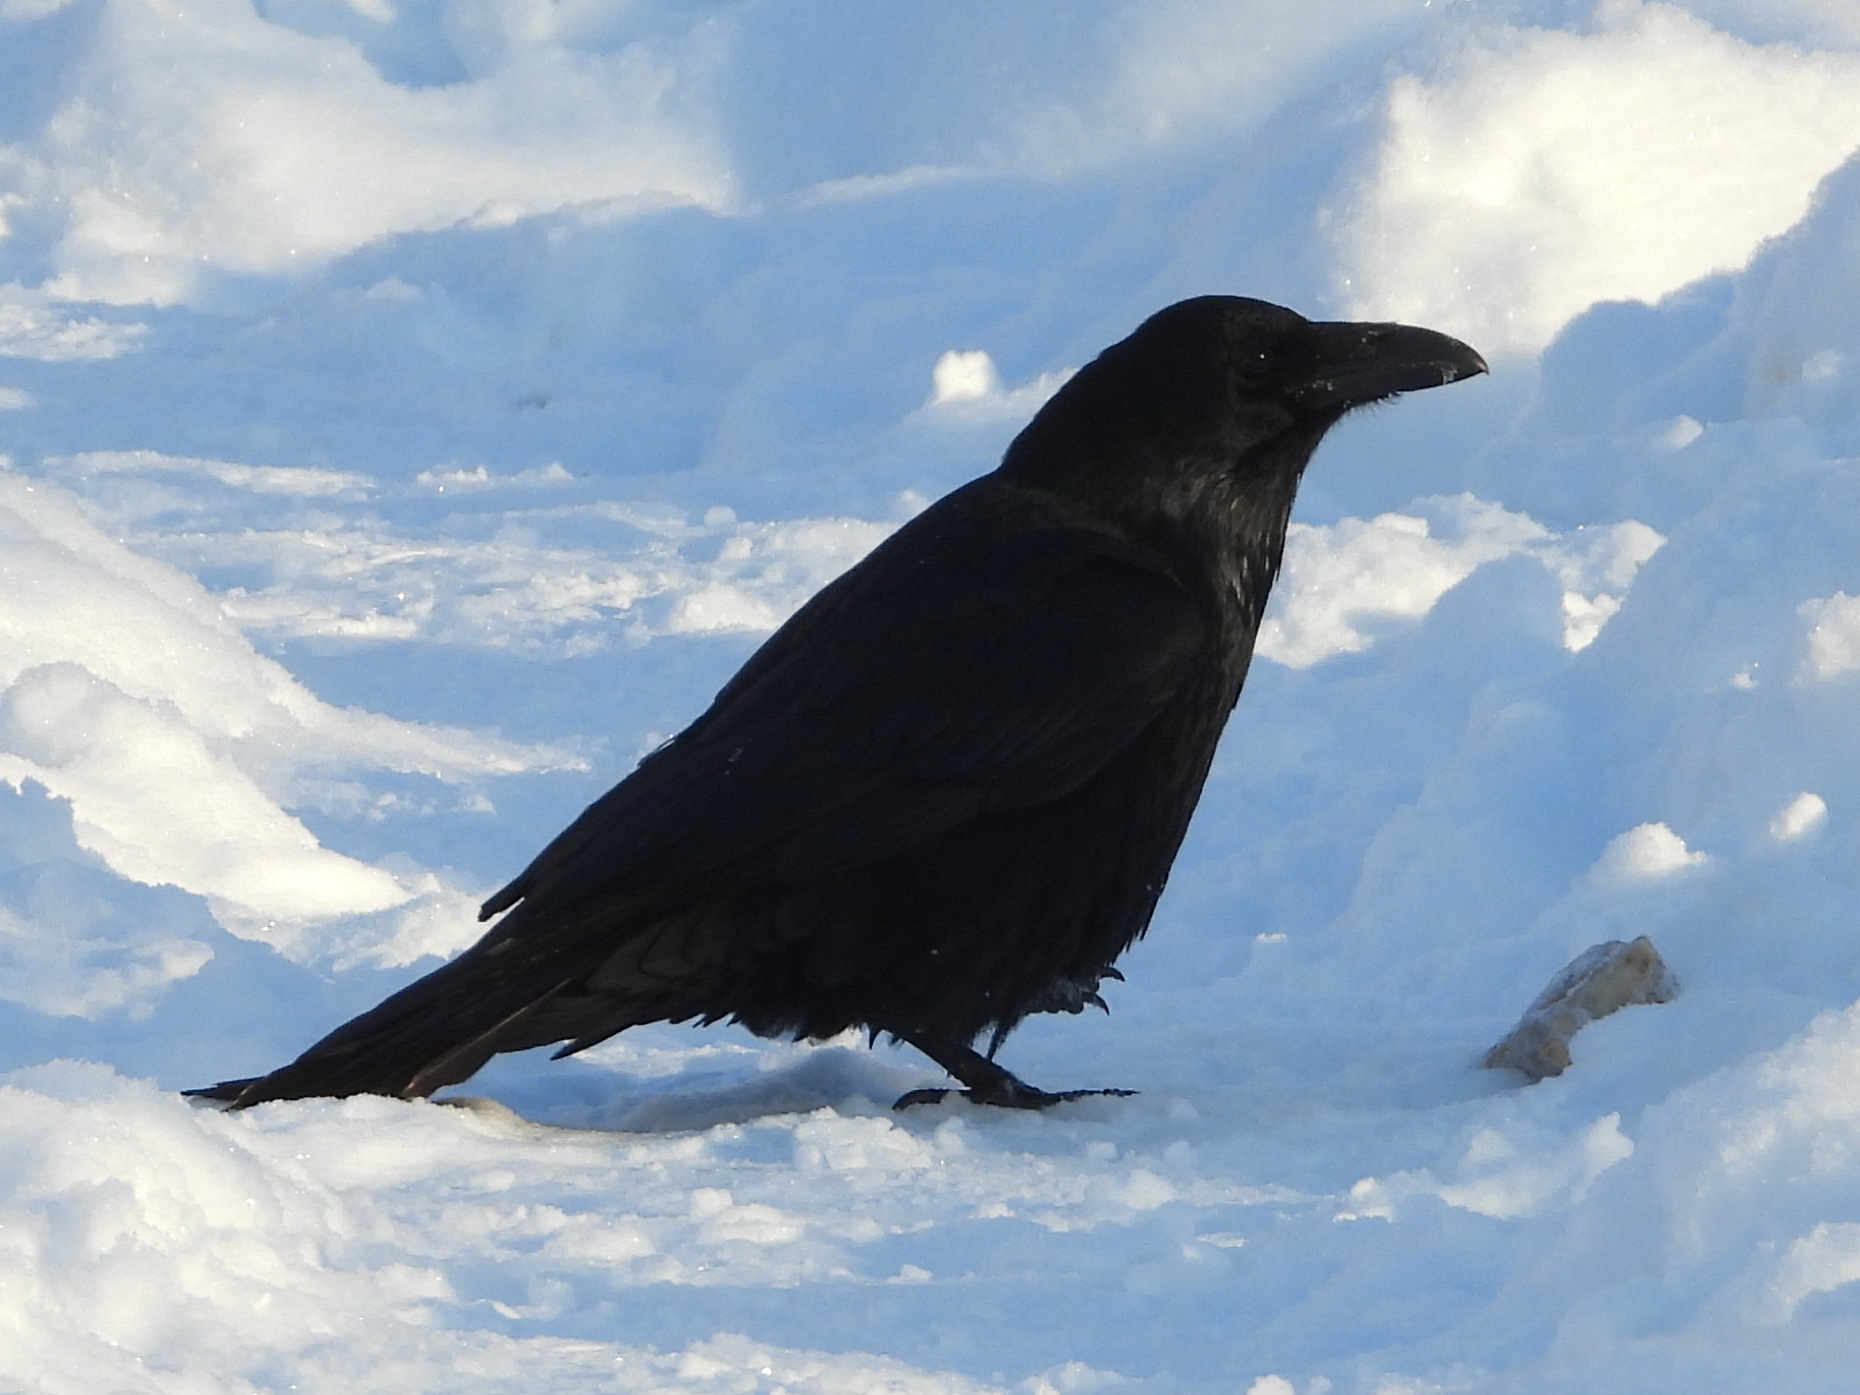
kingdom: Animalia
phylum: Chordata
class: Aves
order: Passeriformes
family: Corvidae
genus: Corvus
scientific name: Corvus corax
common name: Common raven
